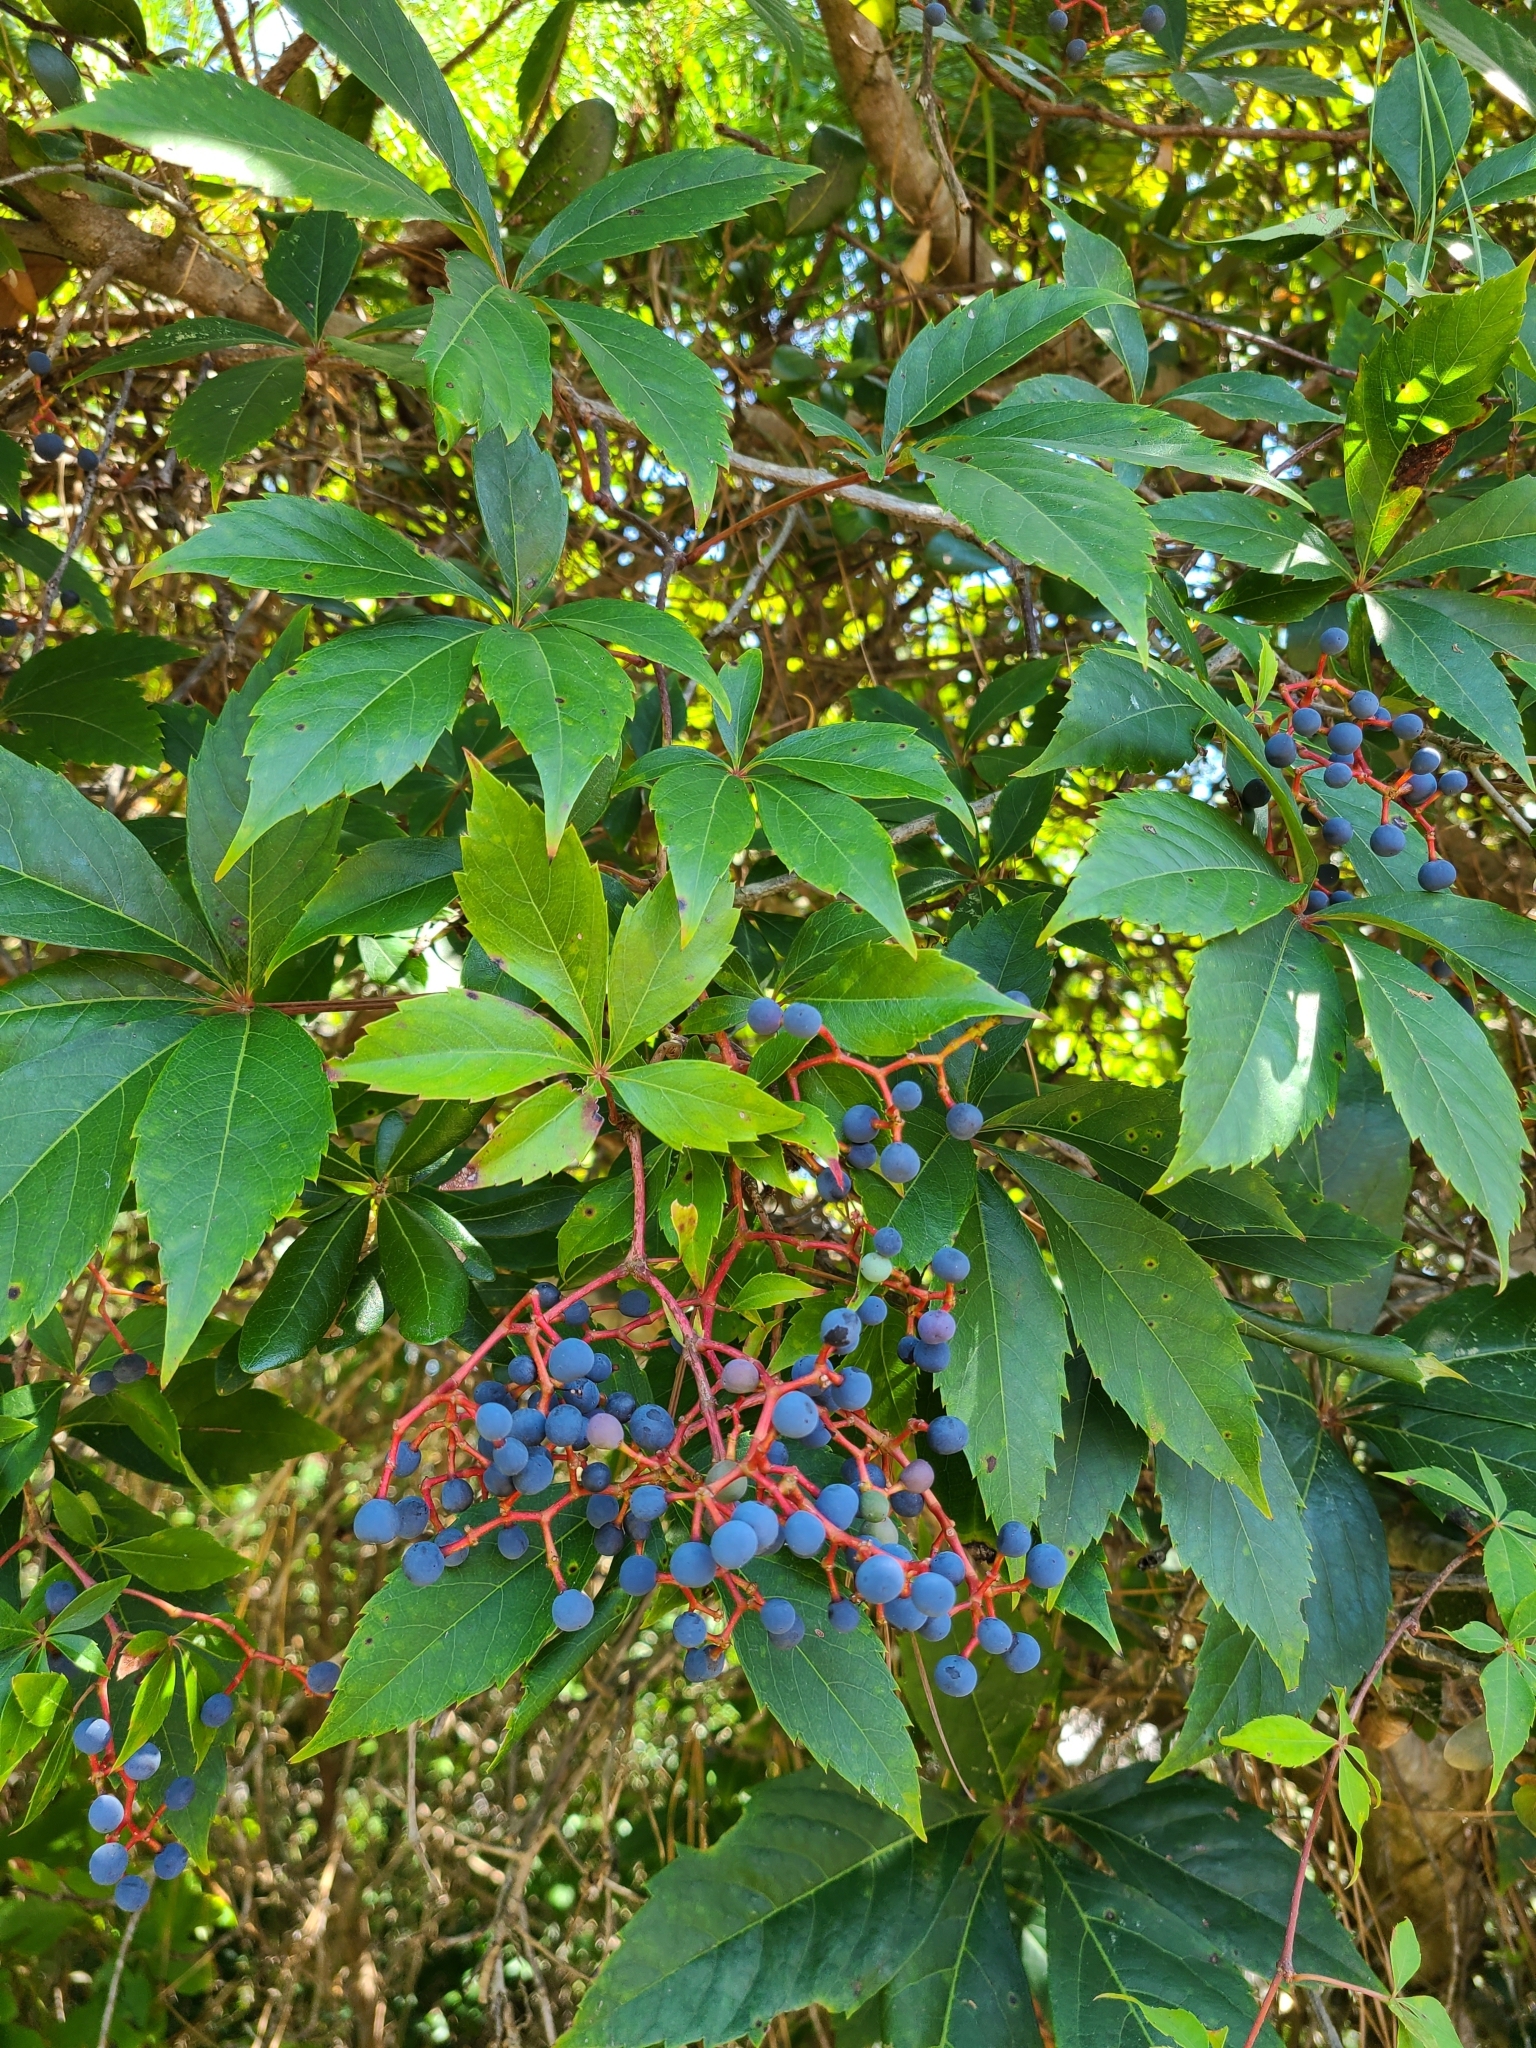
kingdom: Plantae
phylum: Tracheophyta
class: Magnoliopsida
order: Vitales
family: Vitaceae
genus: Parthenocissus
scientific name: Parthenocissus quinquefolia
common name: Virginia-creeper
